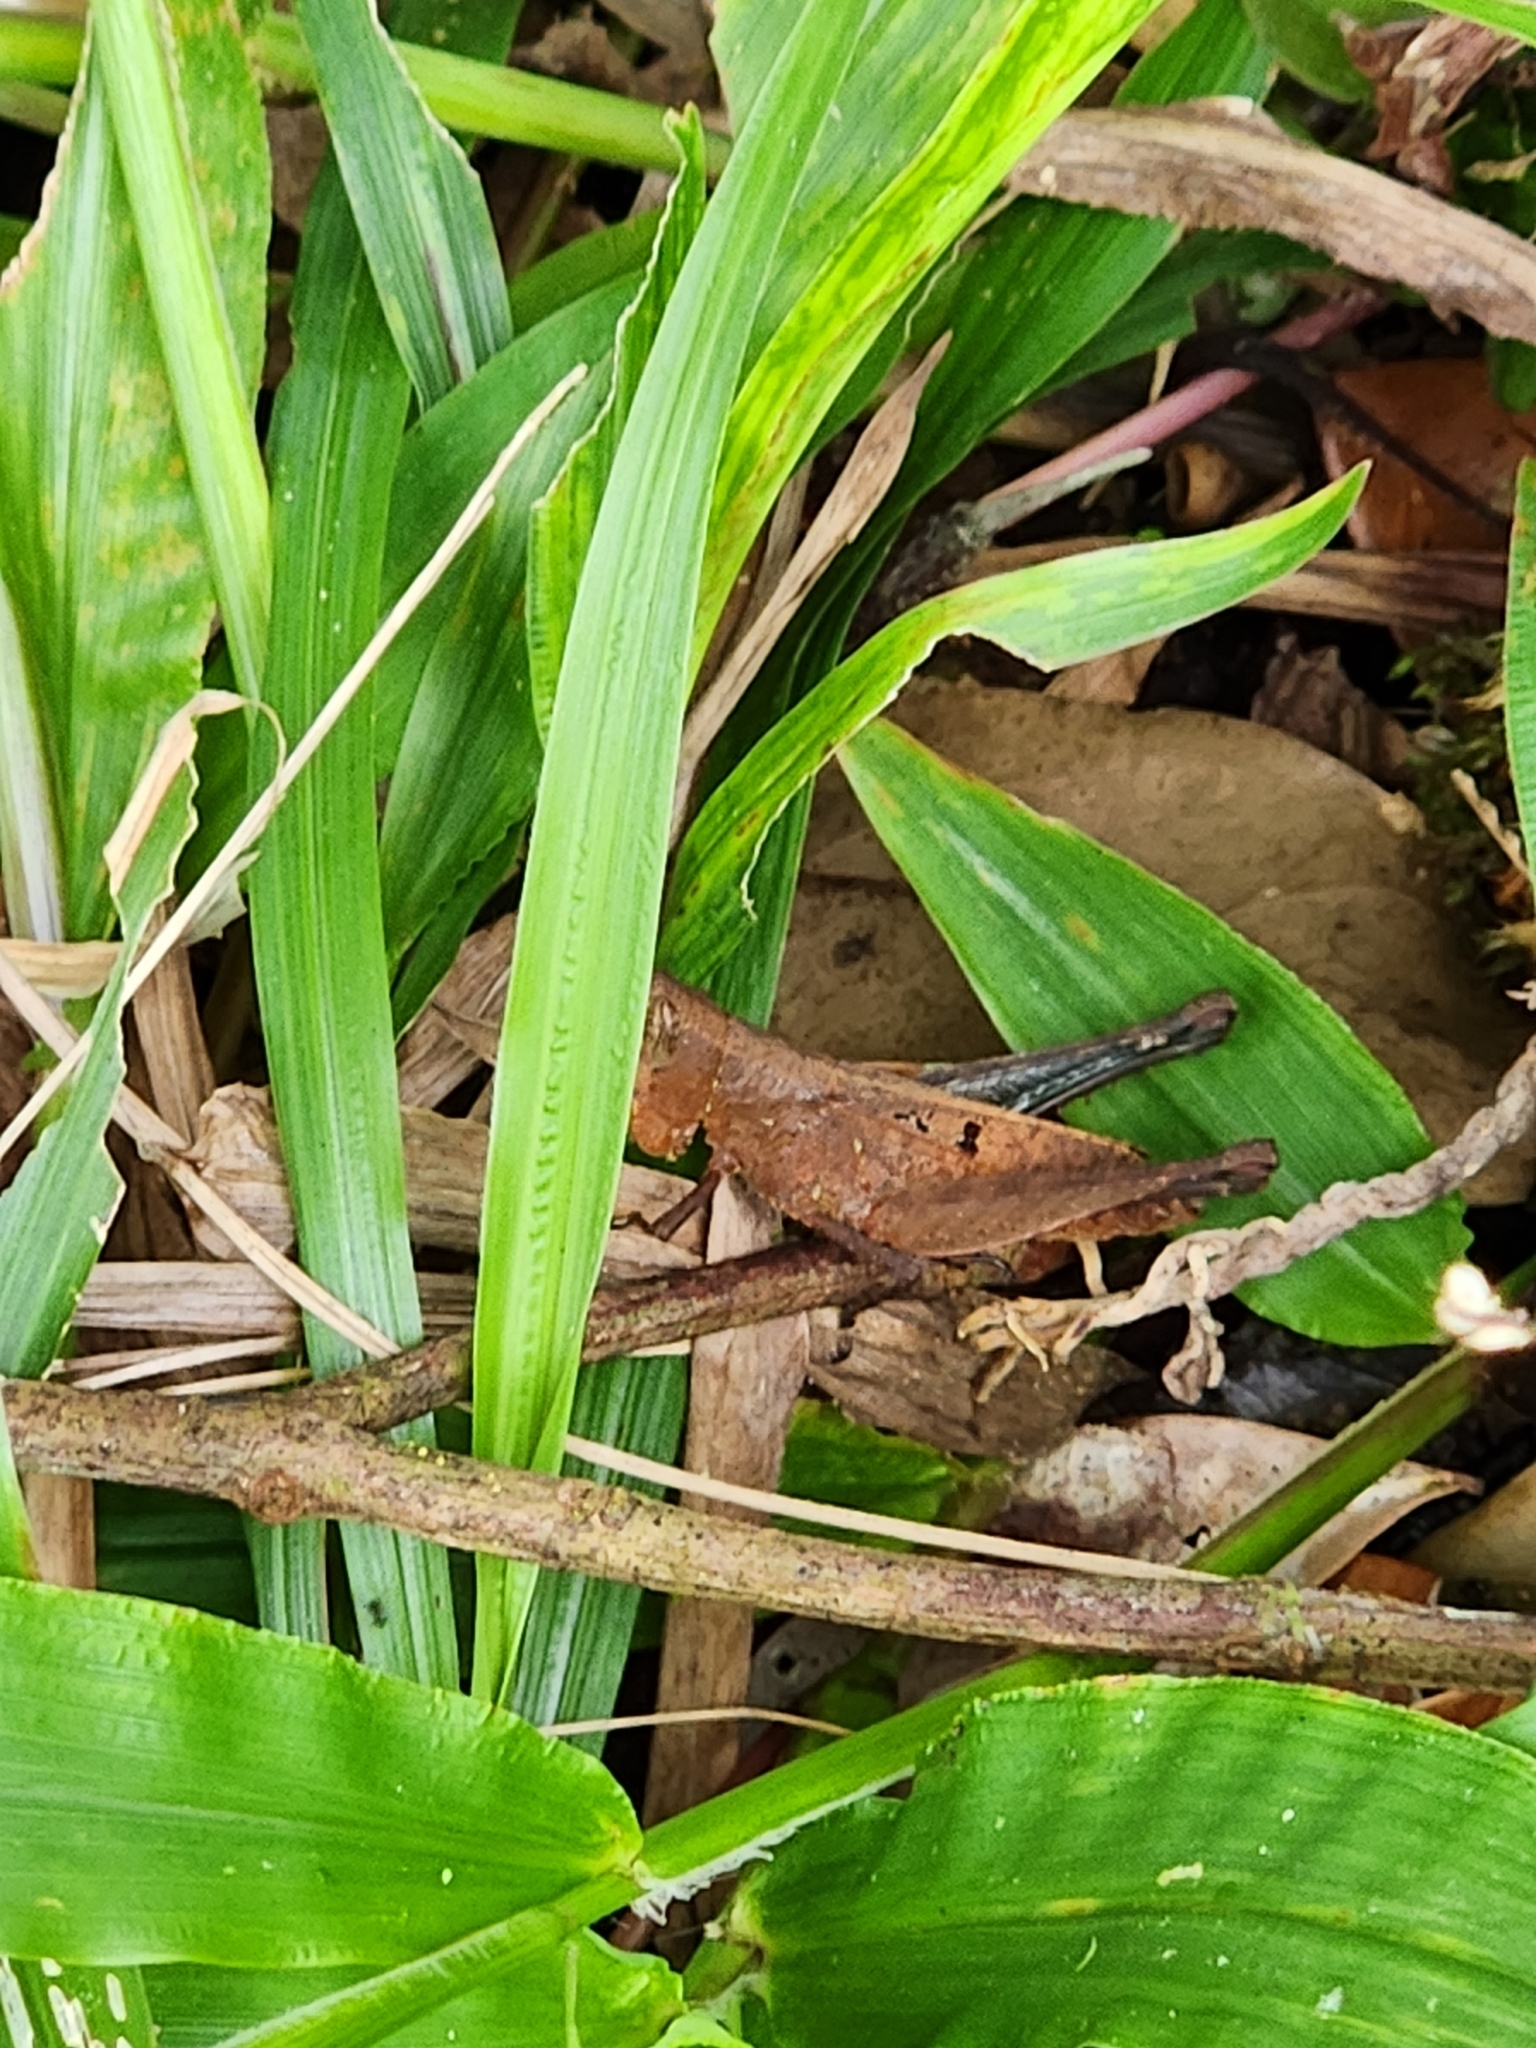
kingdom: Animalia
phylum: Arthropoda
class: Insecta
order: Orthoptera
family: Romaleidae
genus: Maculiparia
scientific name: Maculiparia rotundata
